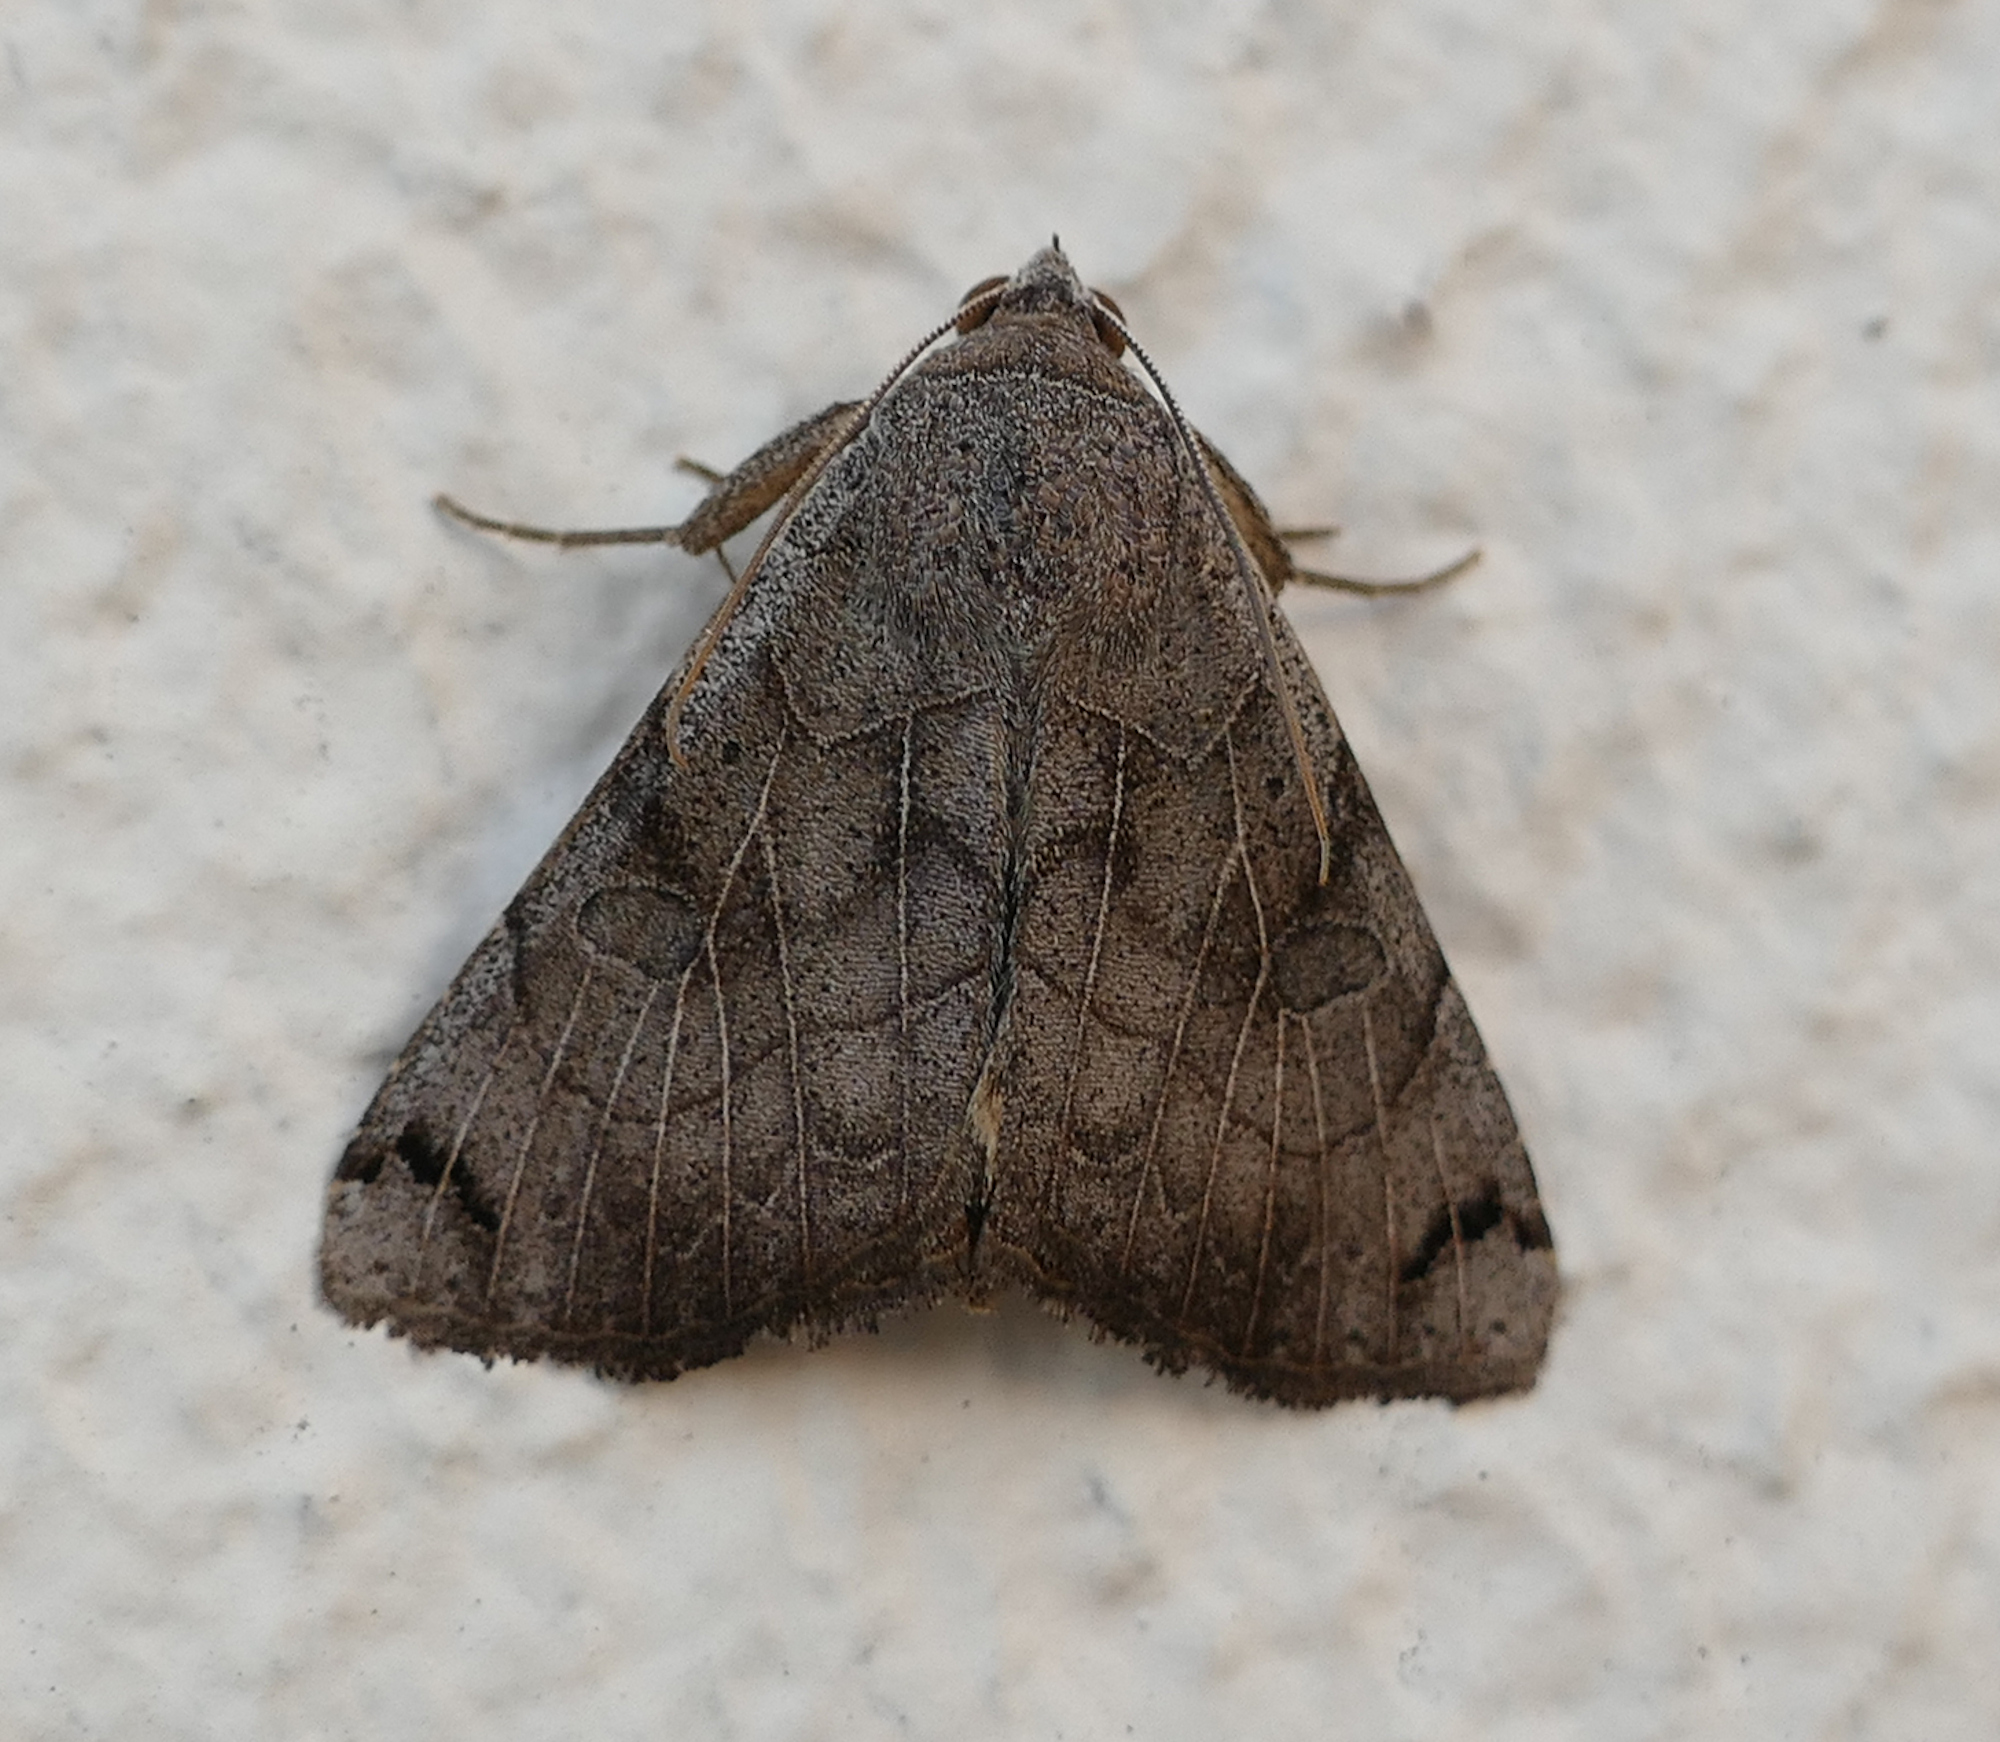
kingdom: Animalia
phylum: Arthropoda
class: Insecta
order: Lepidoptera
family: Erebidae
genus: Isogona
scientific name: Isogona scindens
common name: Owlet moth
